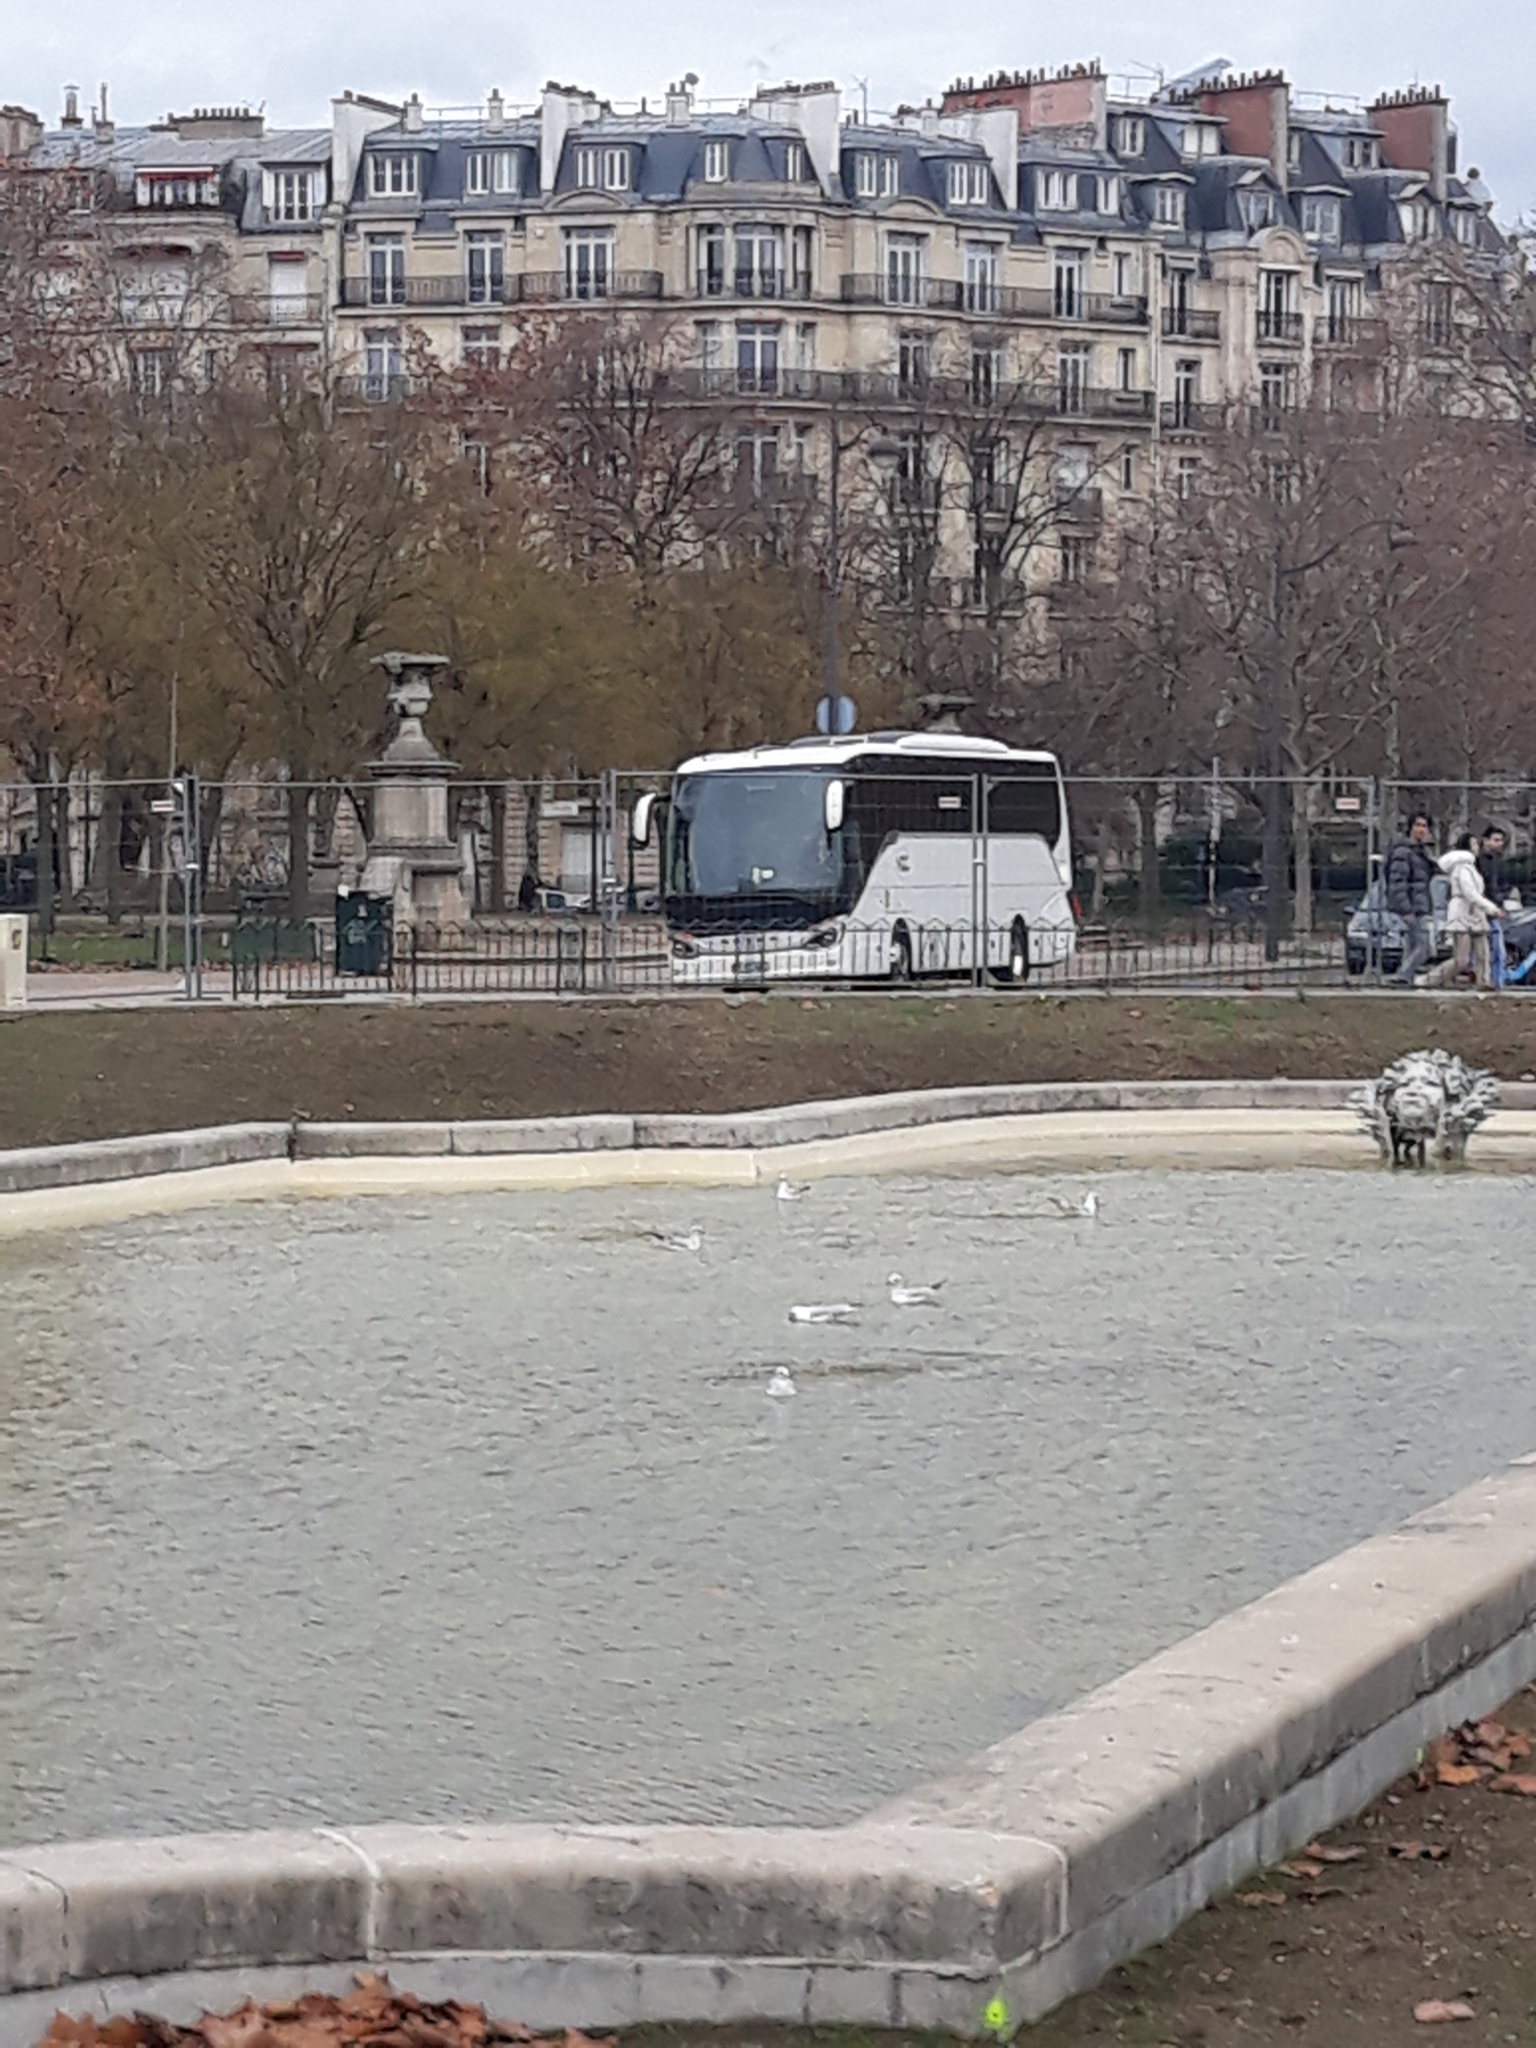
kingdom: Animalia
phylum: Chordata
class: Aves
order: Charadriiformes
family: Laridae
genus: Chroicocephalus
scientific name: Chroicocephalus ridibundus
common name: Black-headed gull
